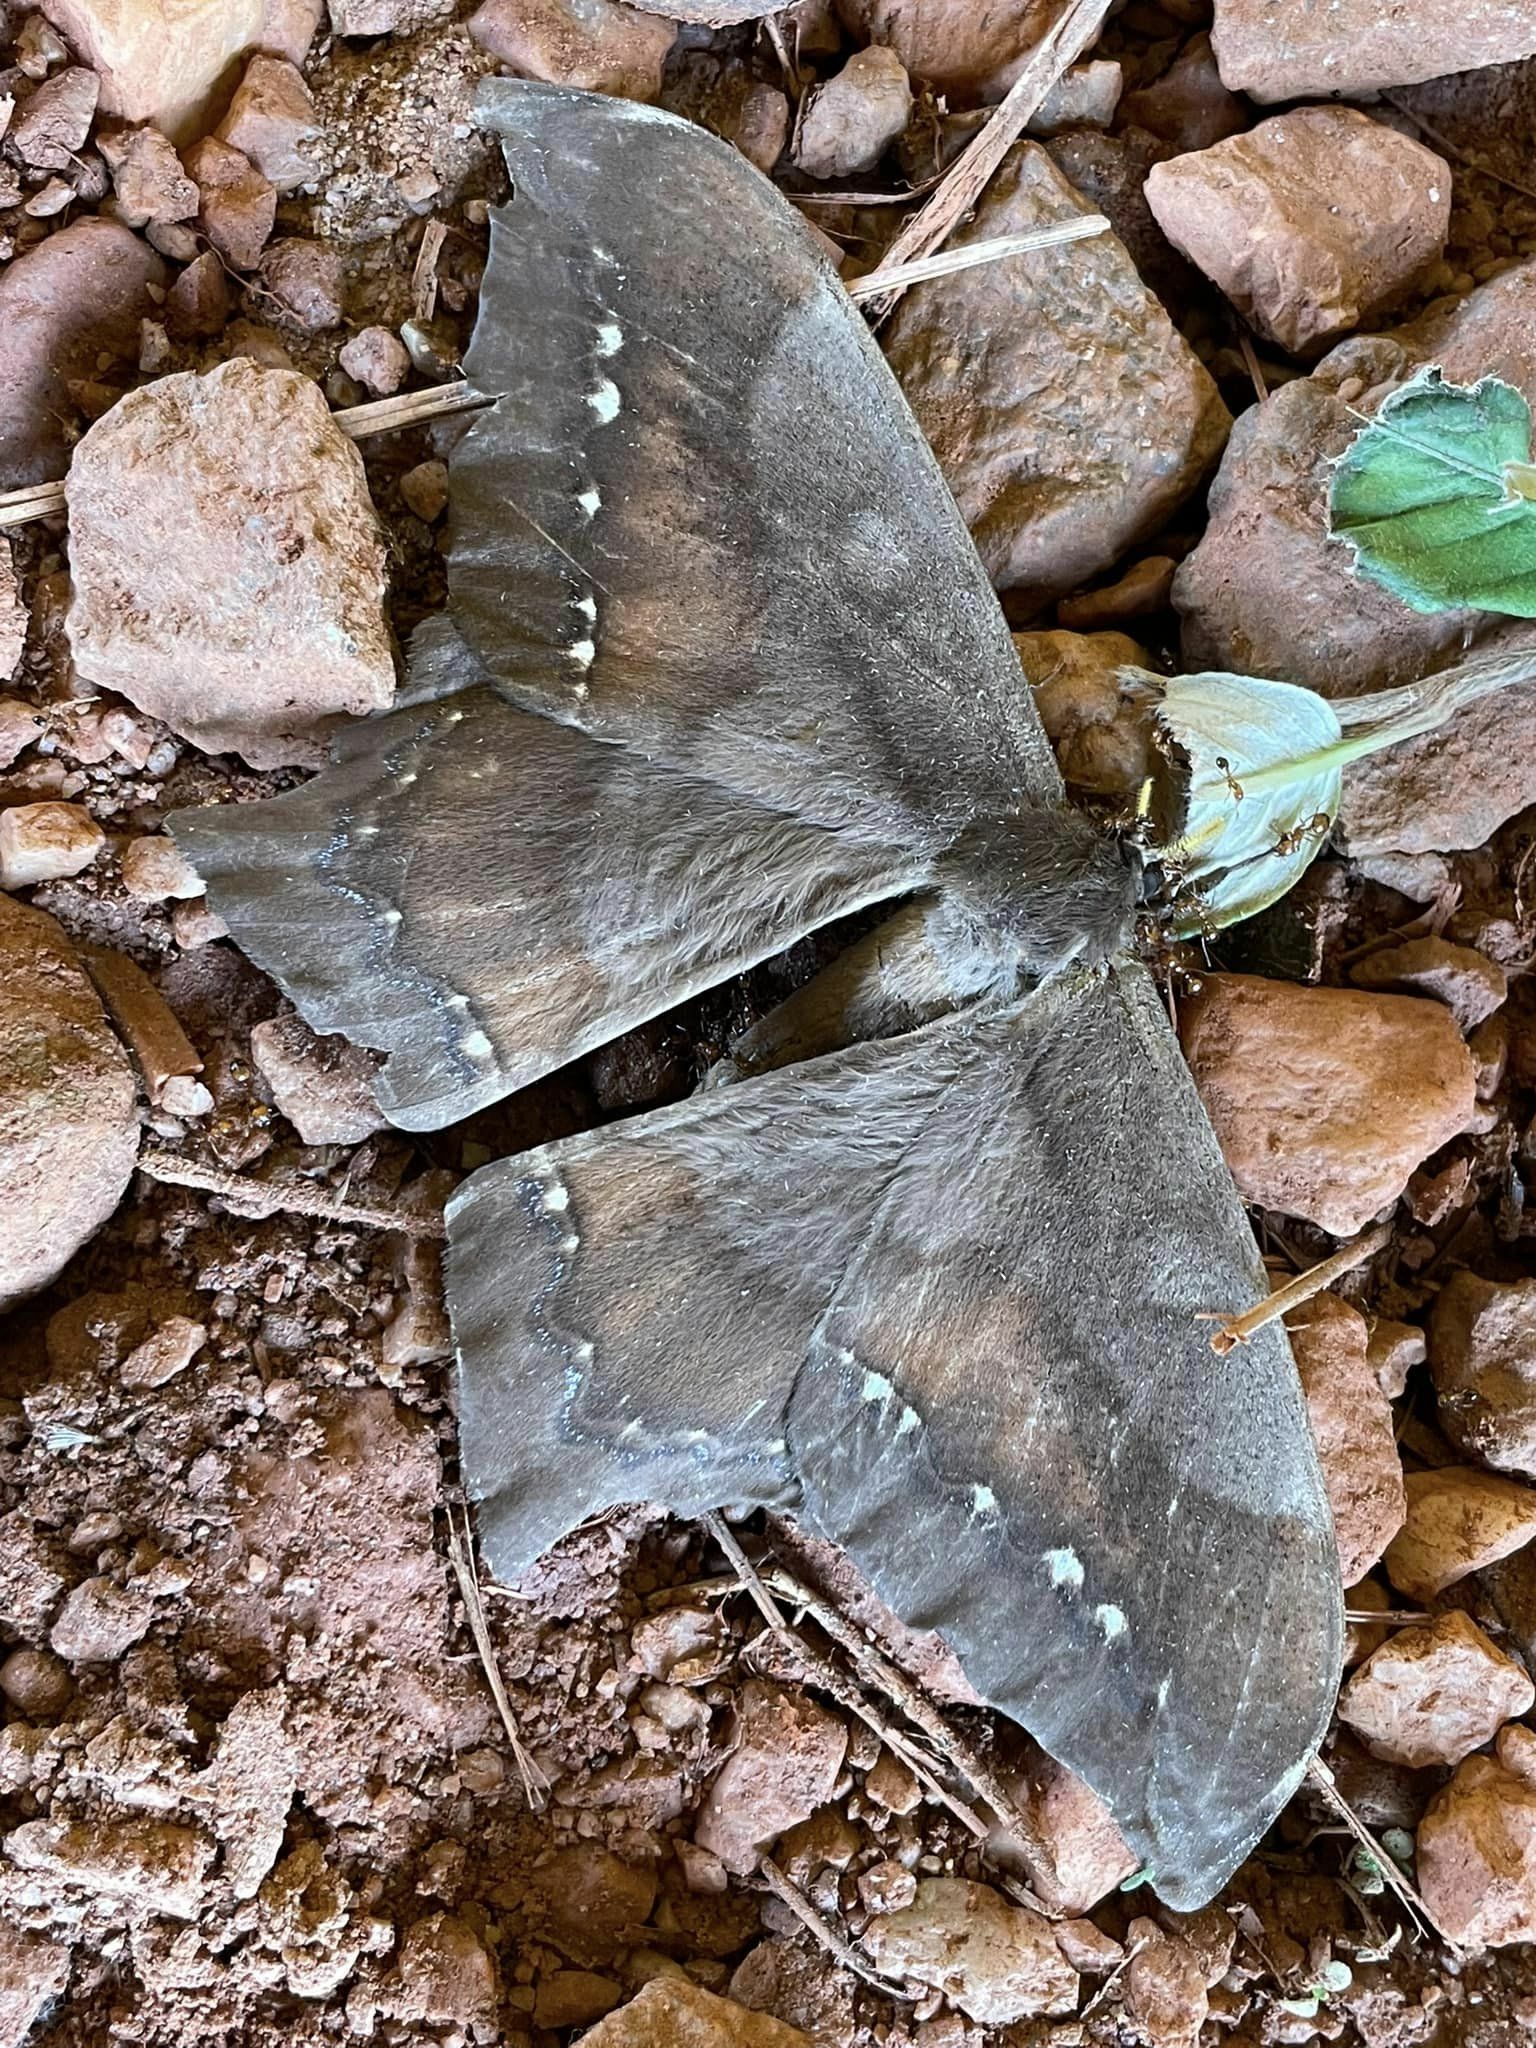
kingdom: Animalia
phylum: Arthropoda
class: Insecta
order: Lepidoptera
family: Saturniidae
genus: Arsenura
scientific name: Arsenura batesii
